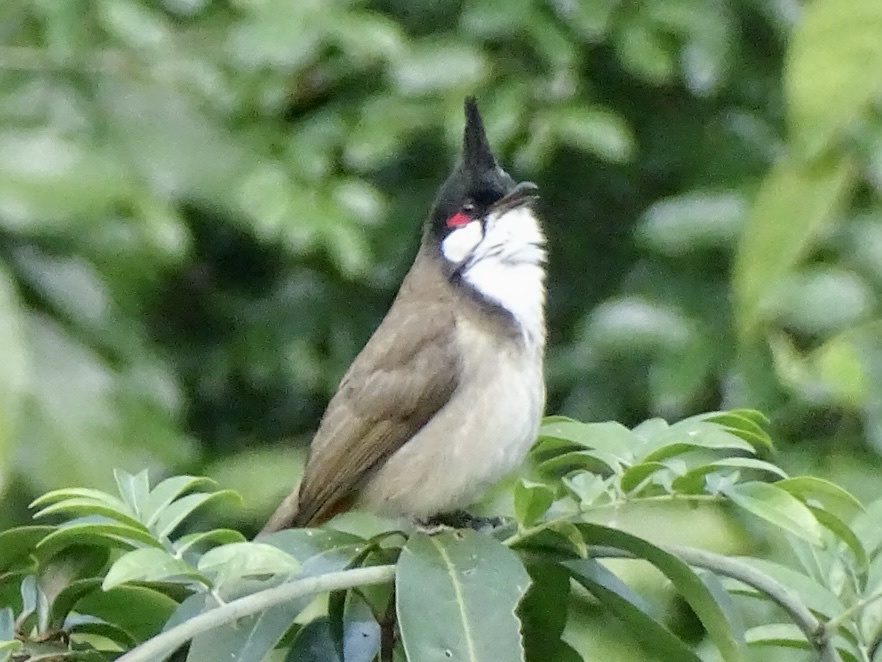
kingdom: Animalia
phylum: Chordata
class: Aves
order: Passeriformes
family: Pycnonotidae
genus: Pycnonotus
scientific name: Pycnonotus jocosus
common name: Red-whiskered bulbul
